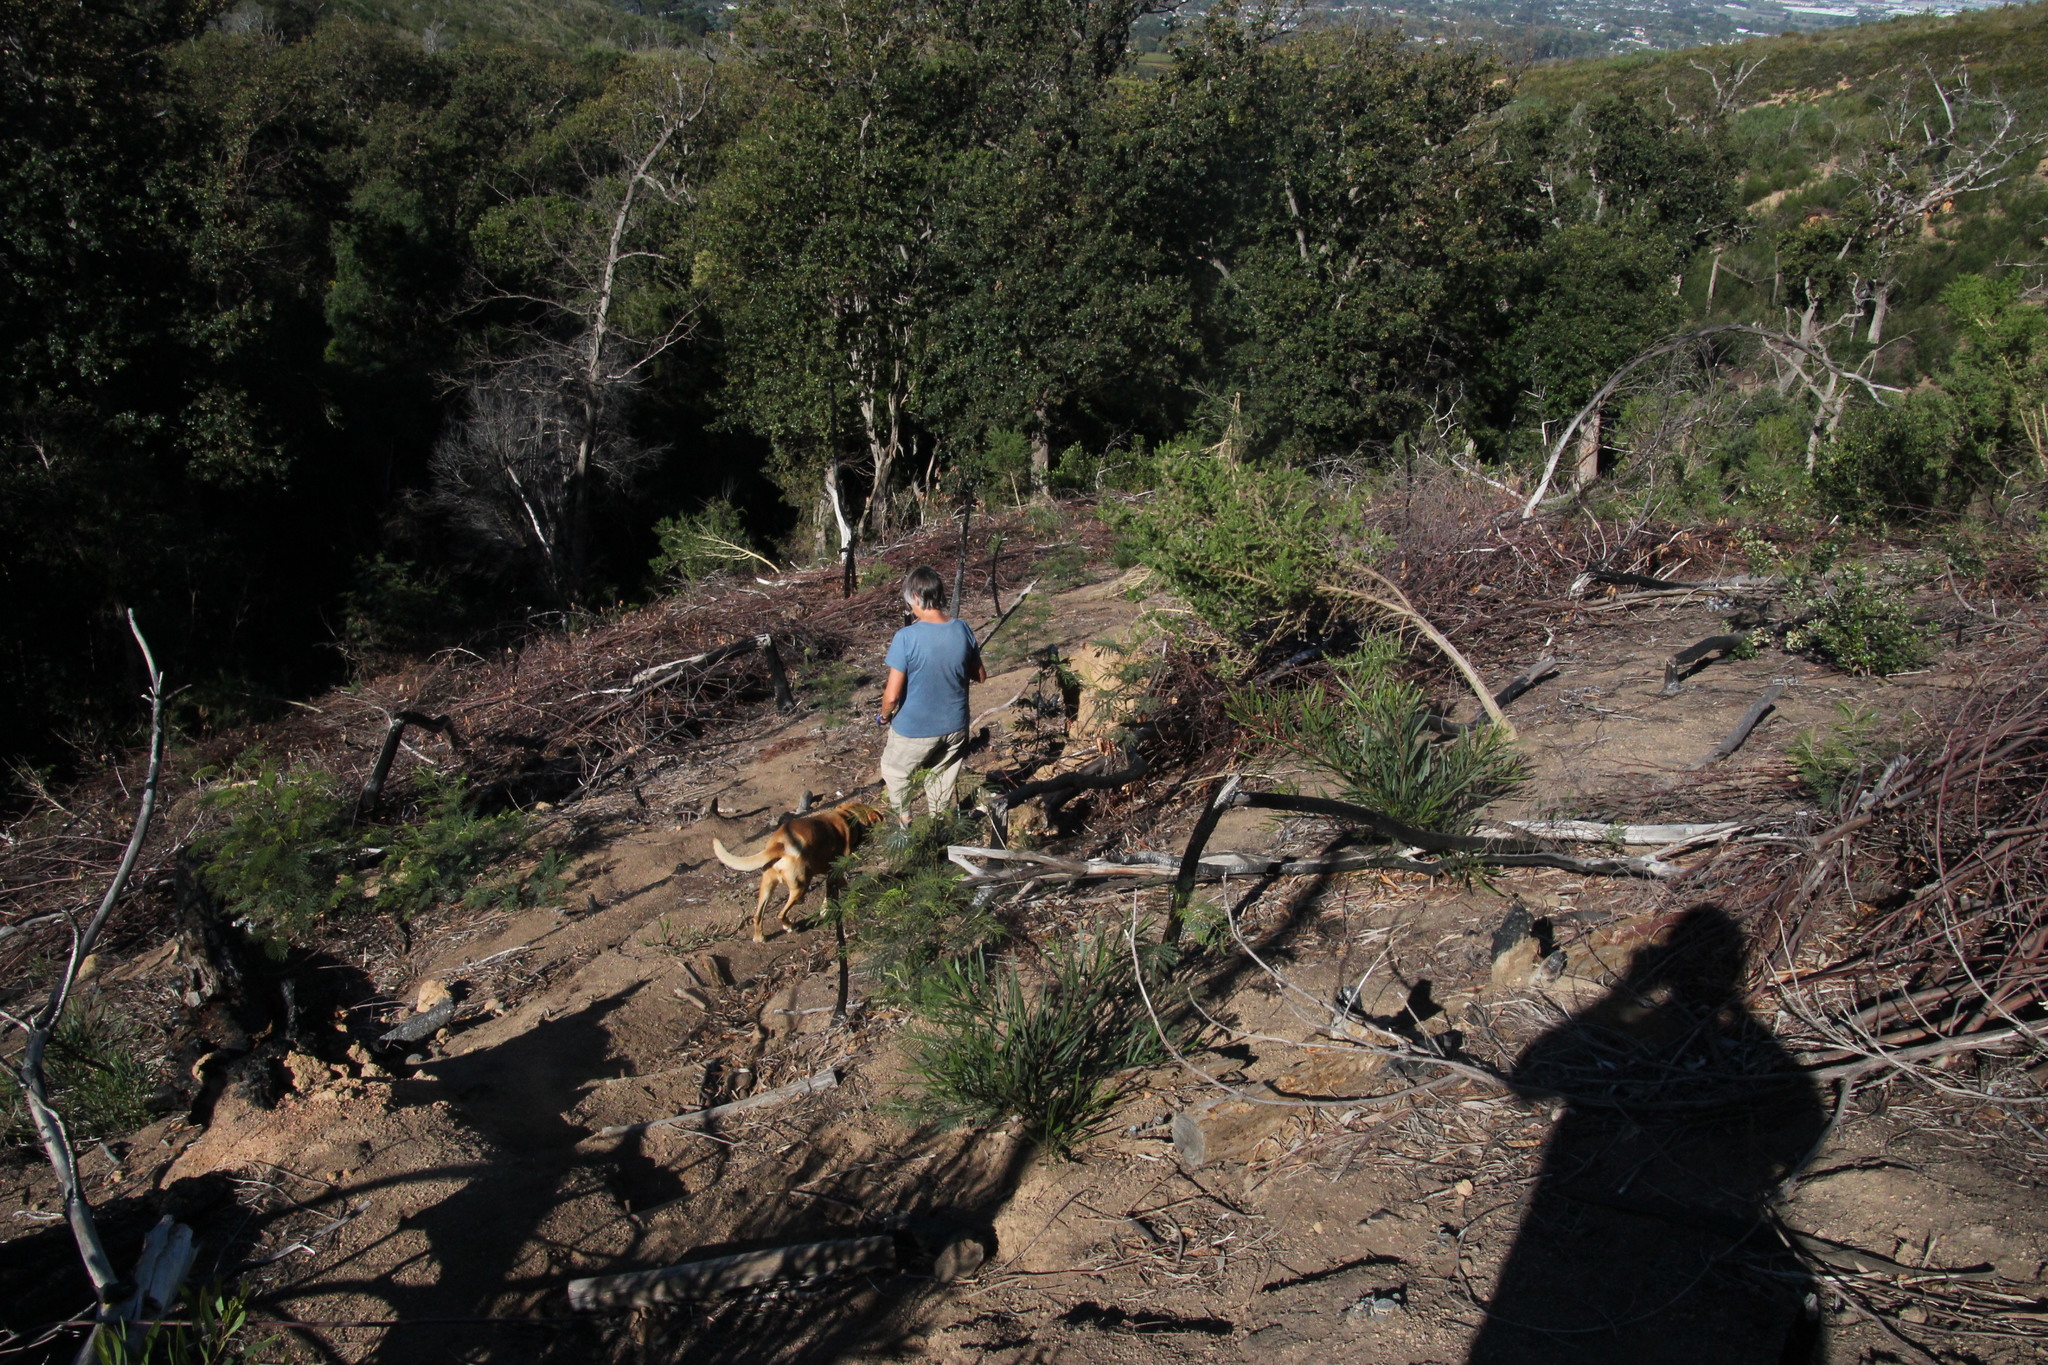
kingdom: Plantae
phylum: Tracheophyta
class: Magnoliopsida
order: Fabales
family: Fabaceae
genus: Acacia
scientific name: Acacia longifolia
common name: Sydney golden wattle
